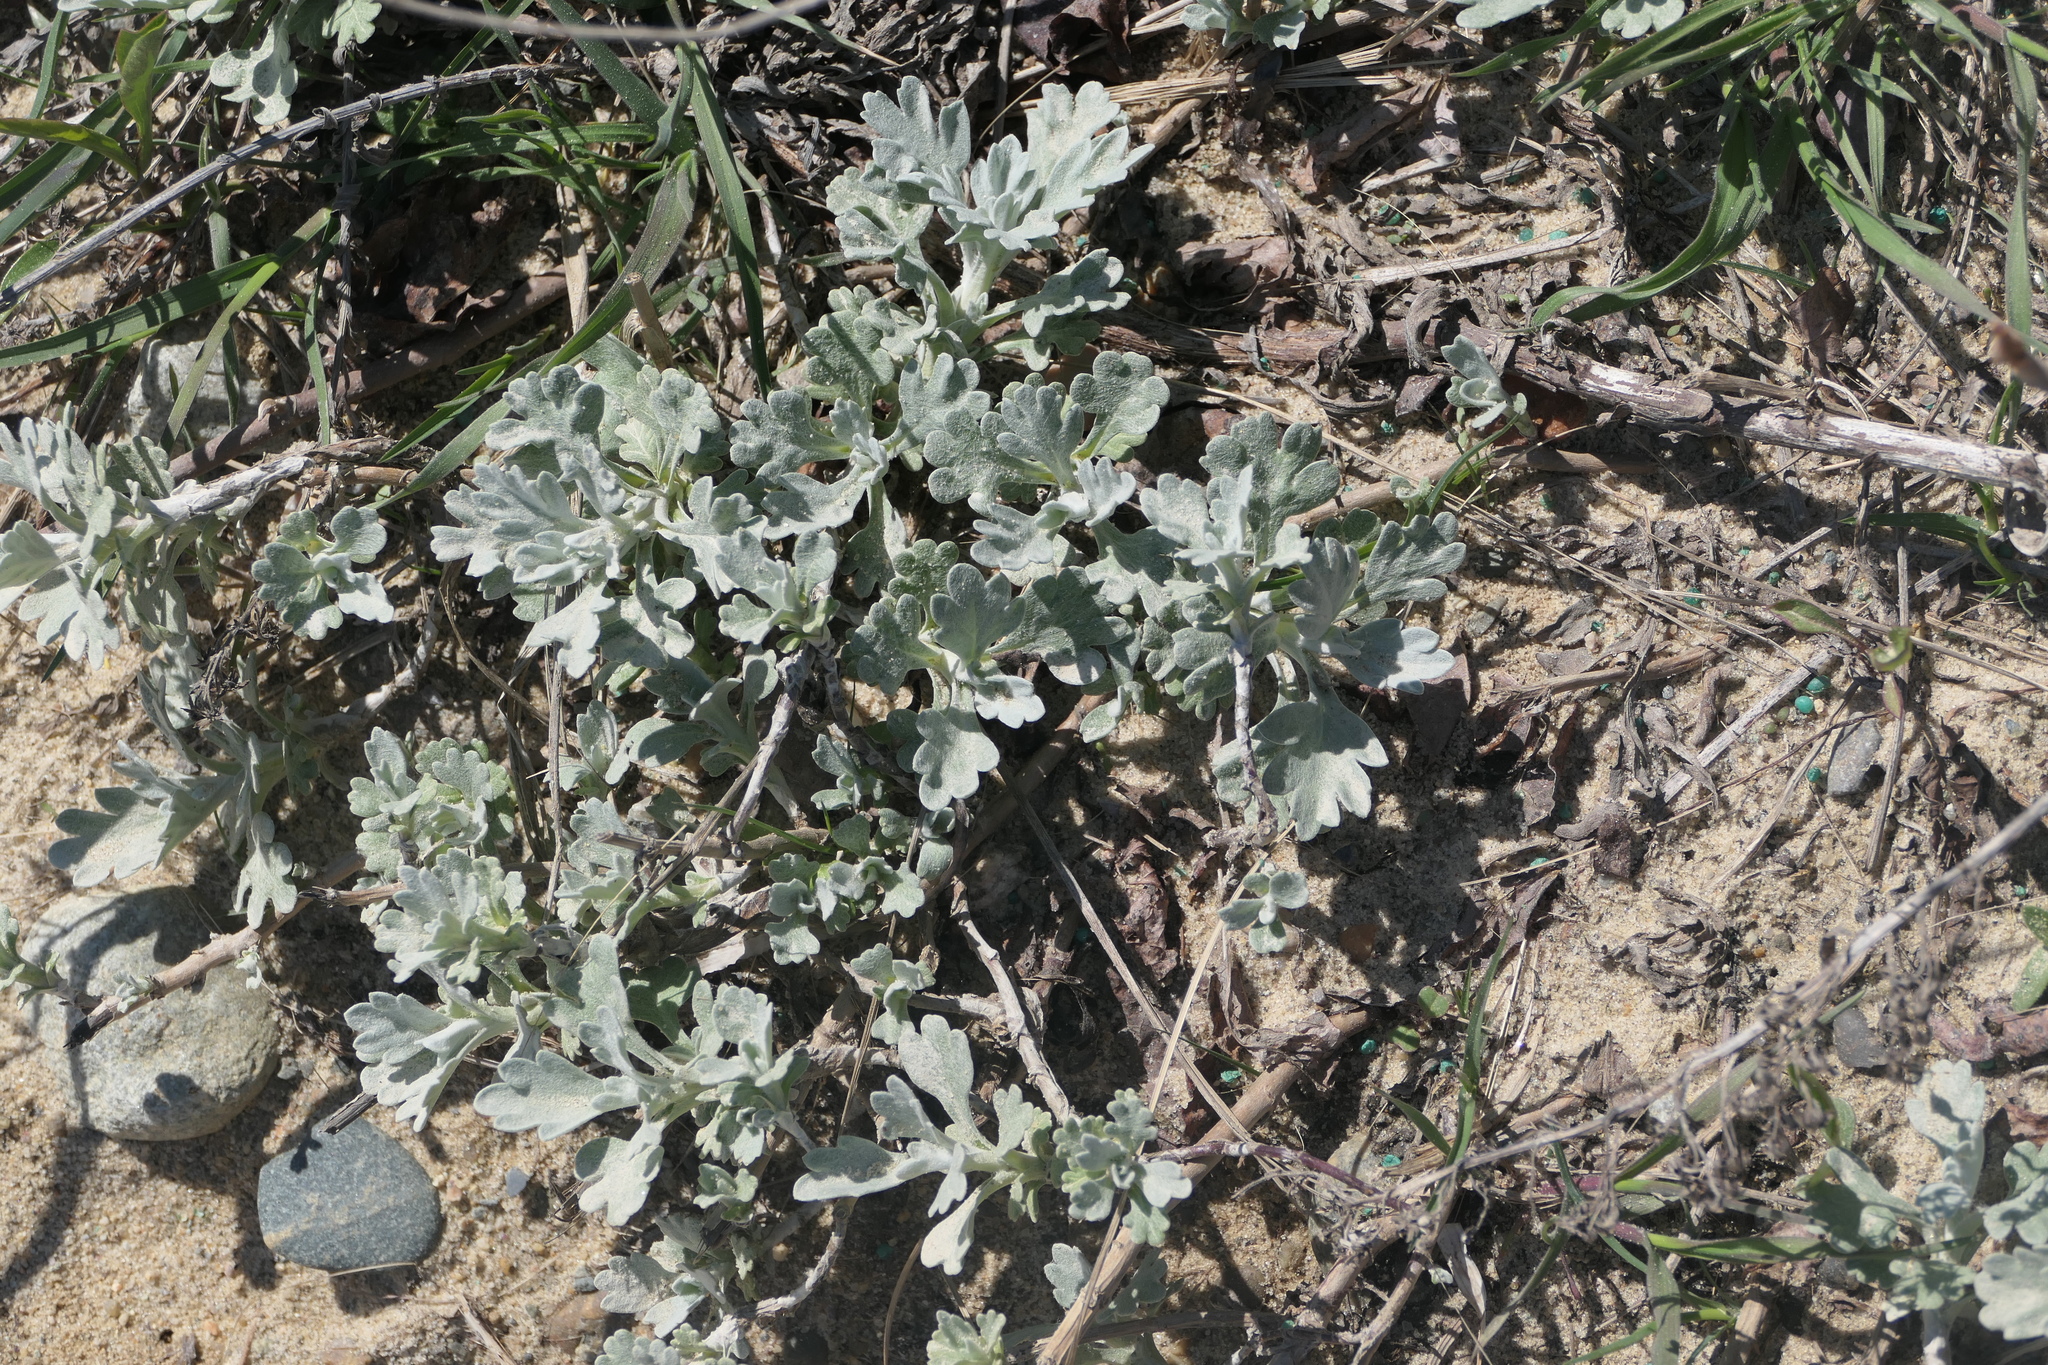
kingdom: Plantae
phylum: Tracheophyta
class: Magnoliopsida
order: Asterales
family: Asteraceae
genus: Artemisia
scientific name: Artemisia stelleriana
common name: Beach wormwood
